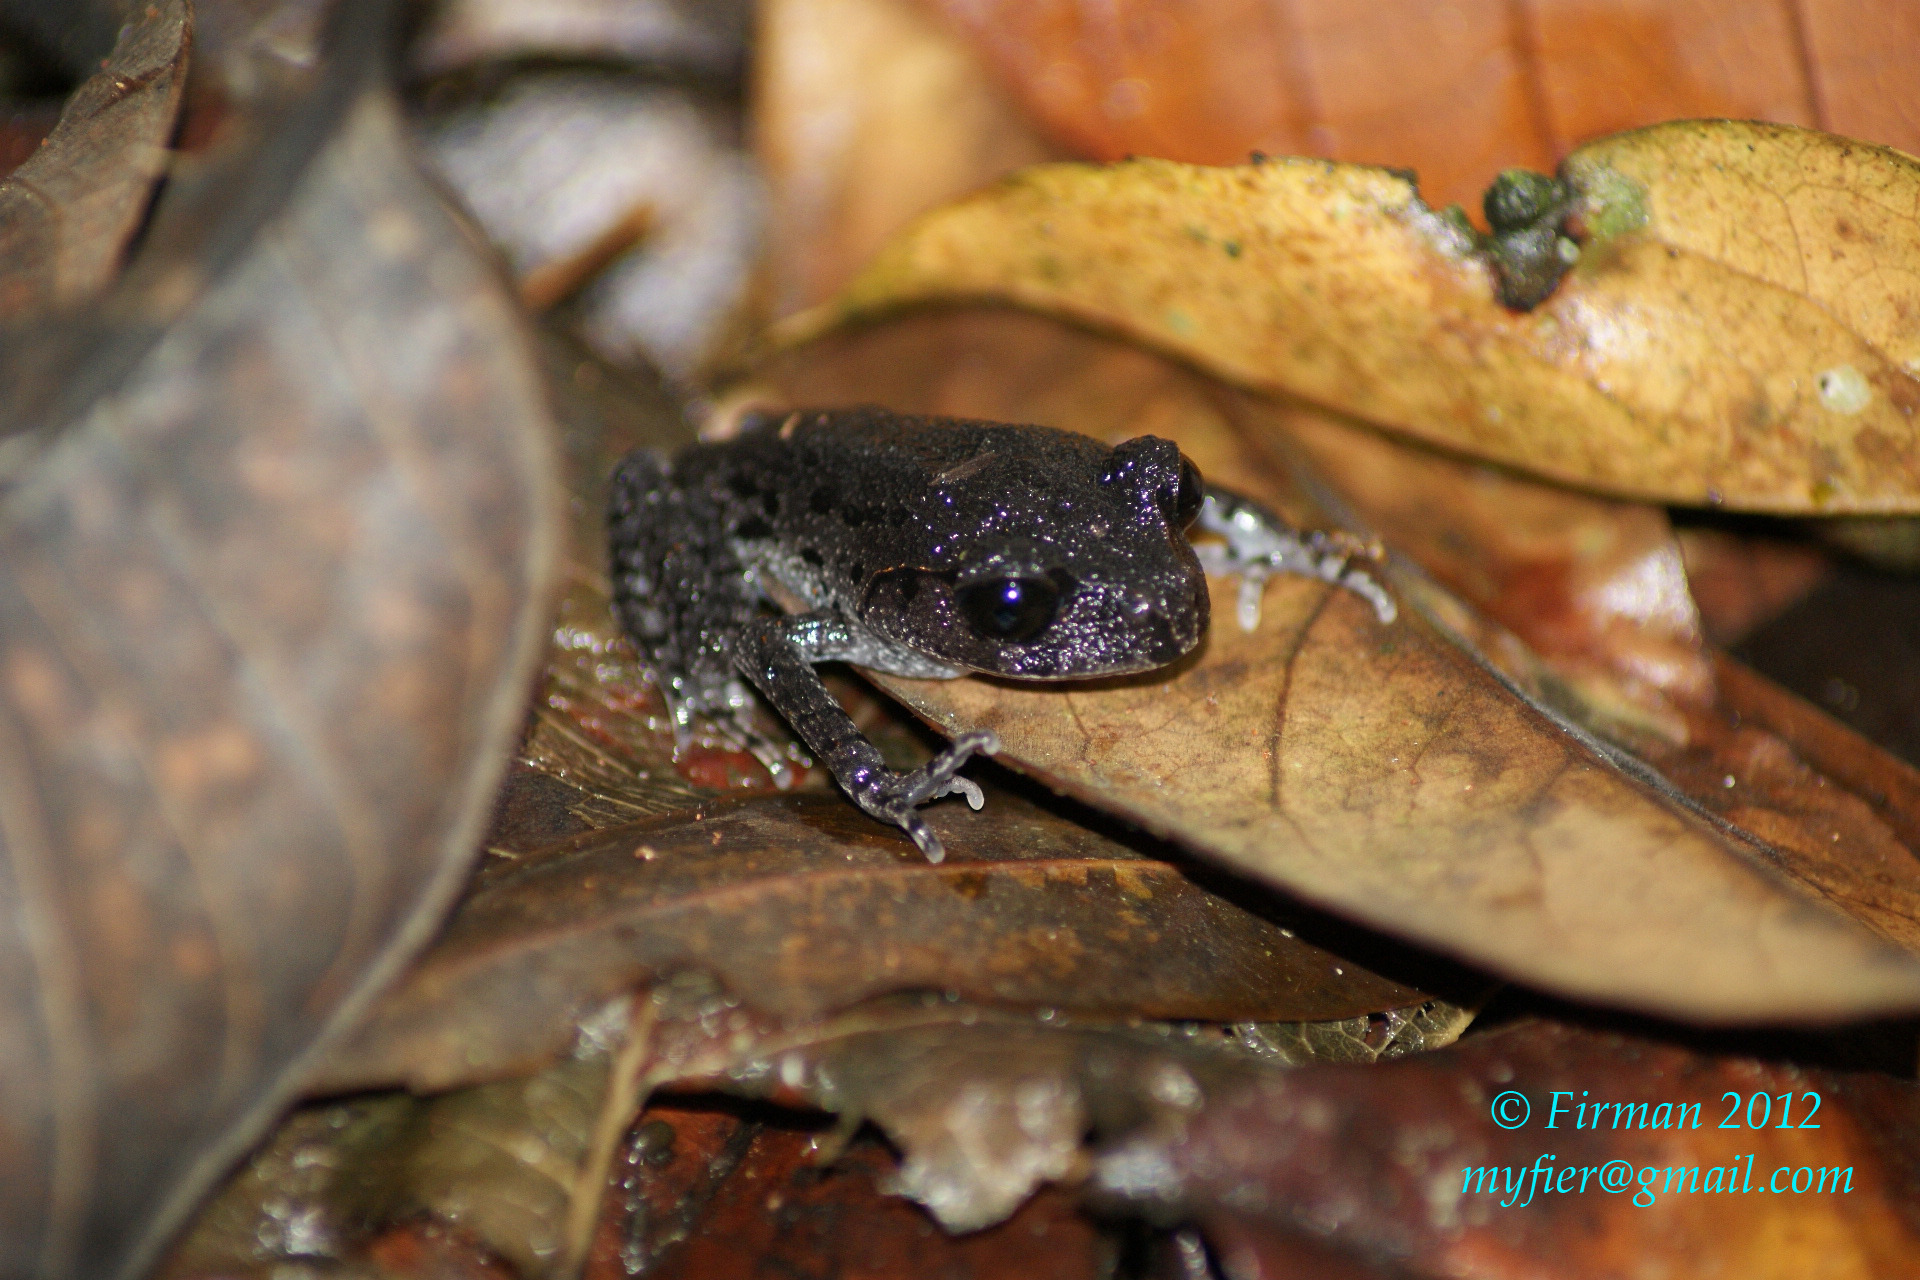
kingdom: Animalia
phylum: Chordata
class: Amphibia
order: Anura
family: Megophryidae
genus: Leptobrachium
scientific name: Leptobrachium hasseltii
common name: Hasselt's litter frog
